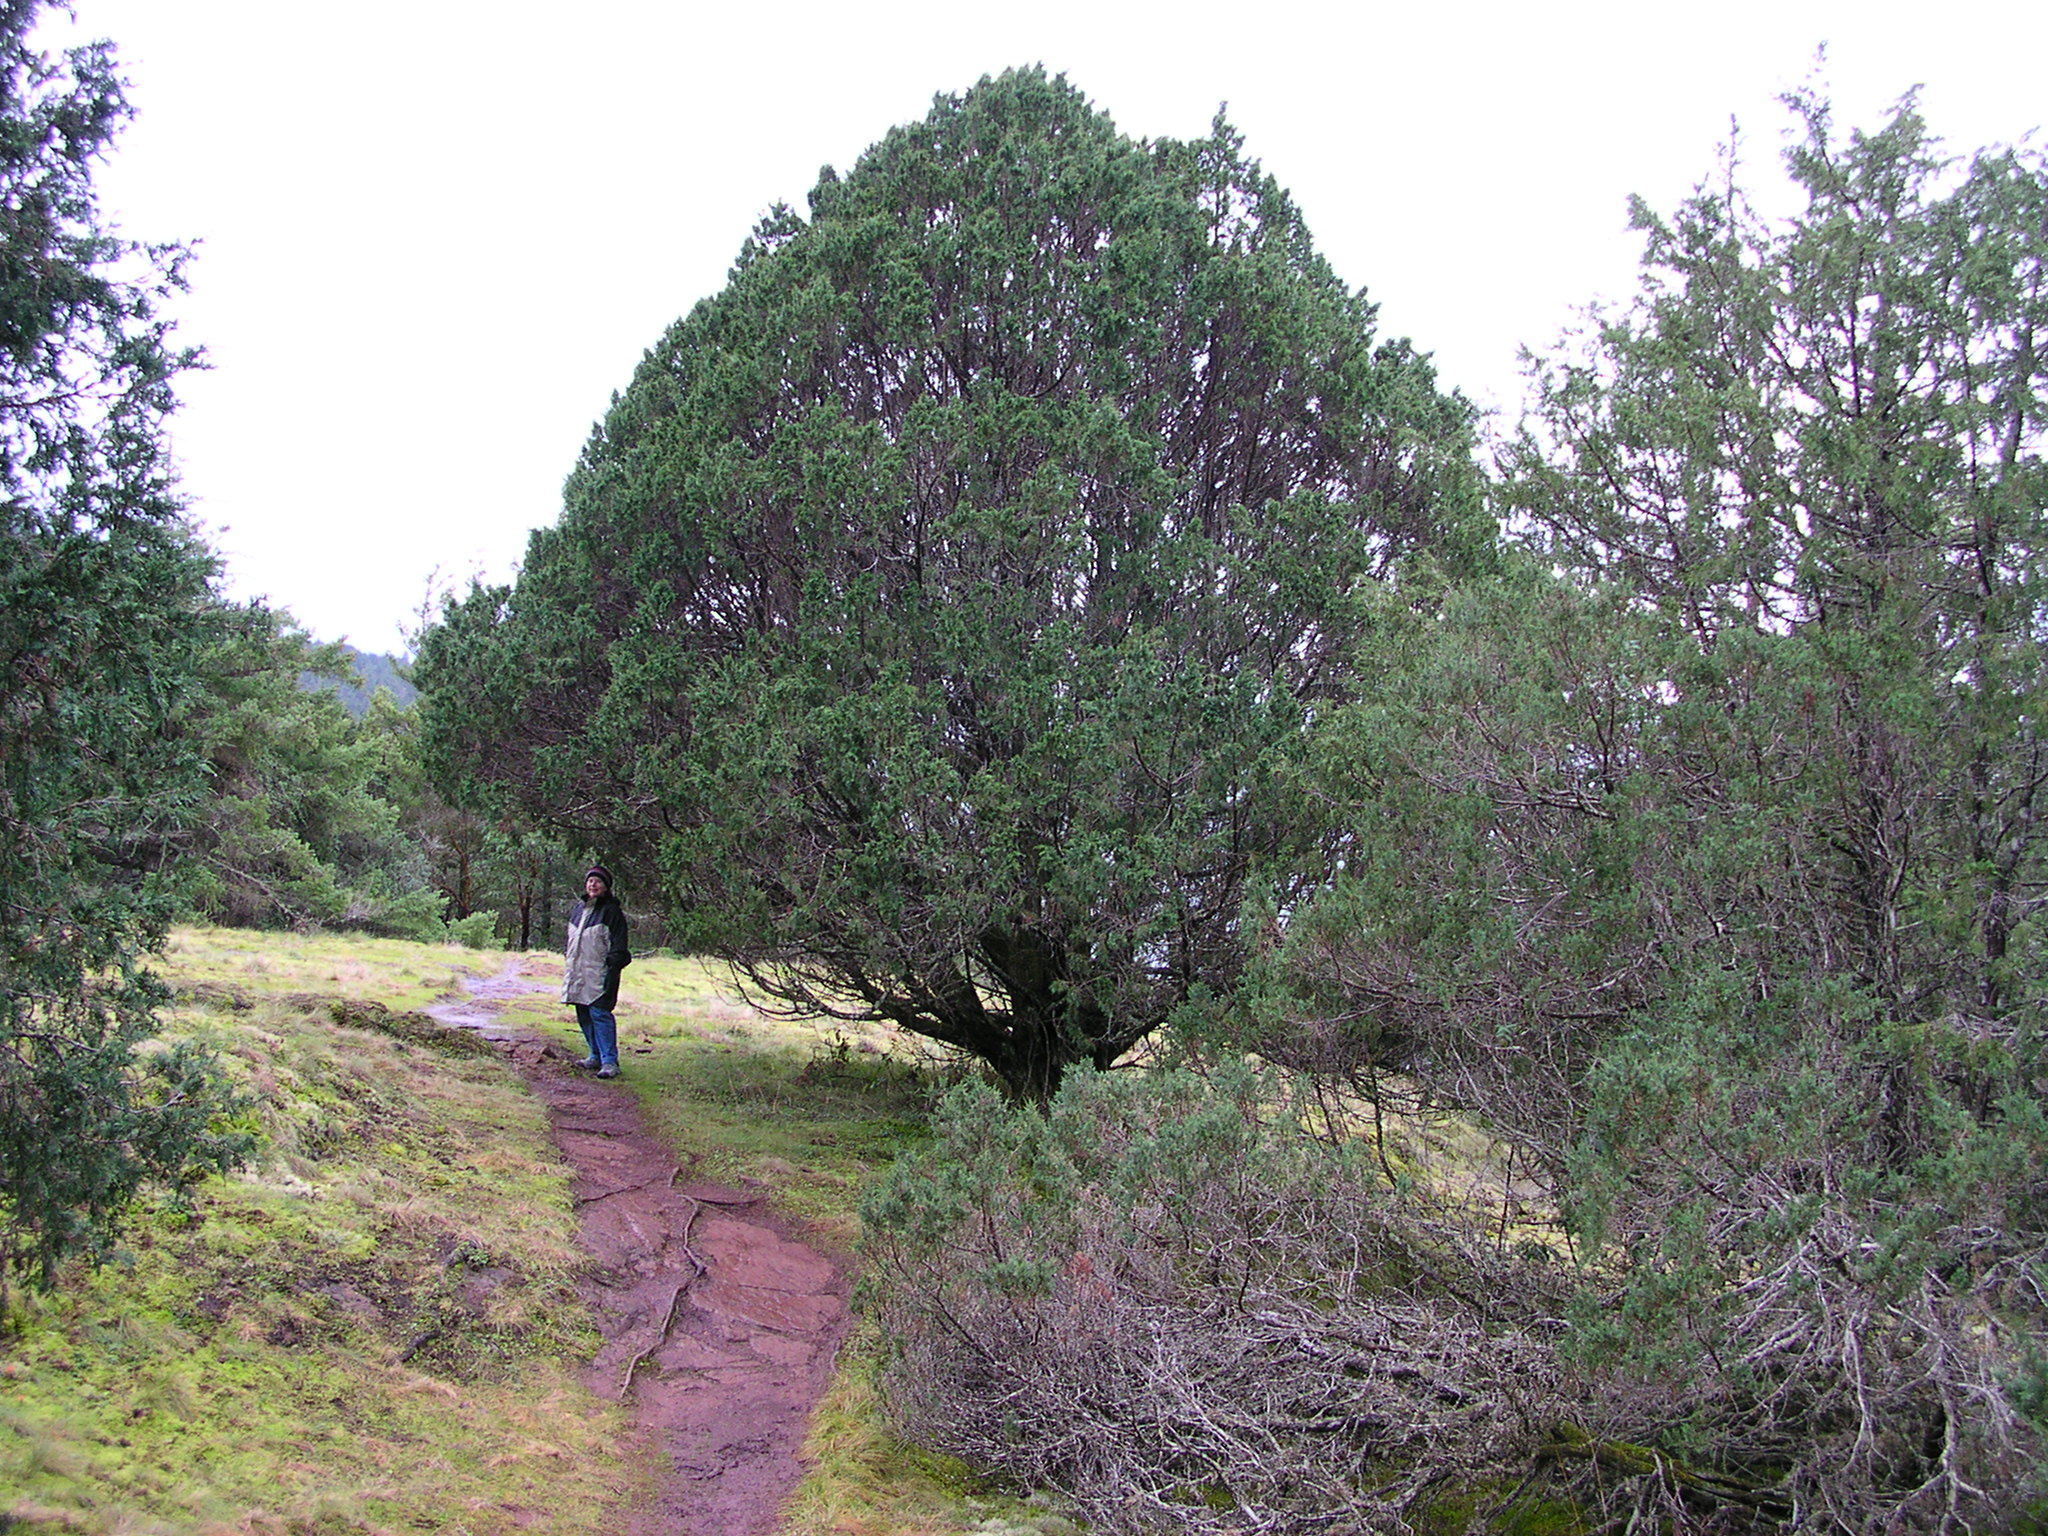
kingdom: Plantae
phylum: Tracheophyta
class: Pinopsida
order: Pinales
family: Cupressaceae
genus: Juniperus
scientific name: Juniperus scopulorum
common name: Rocky mountain juniper
